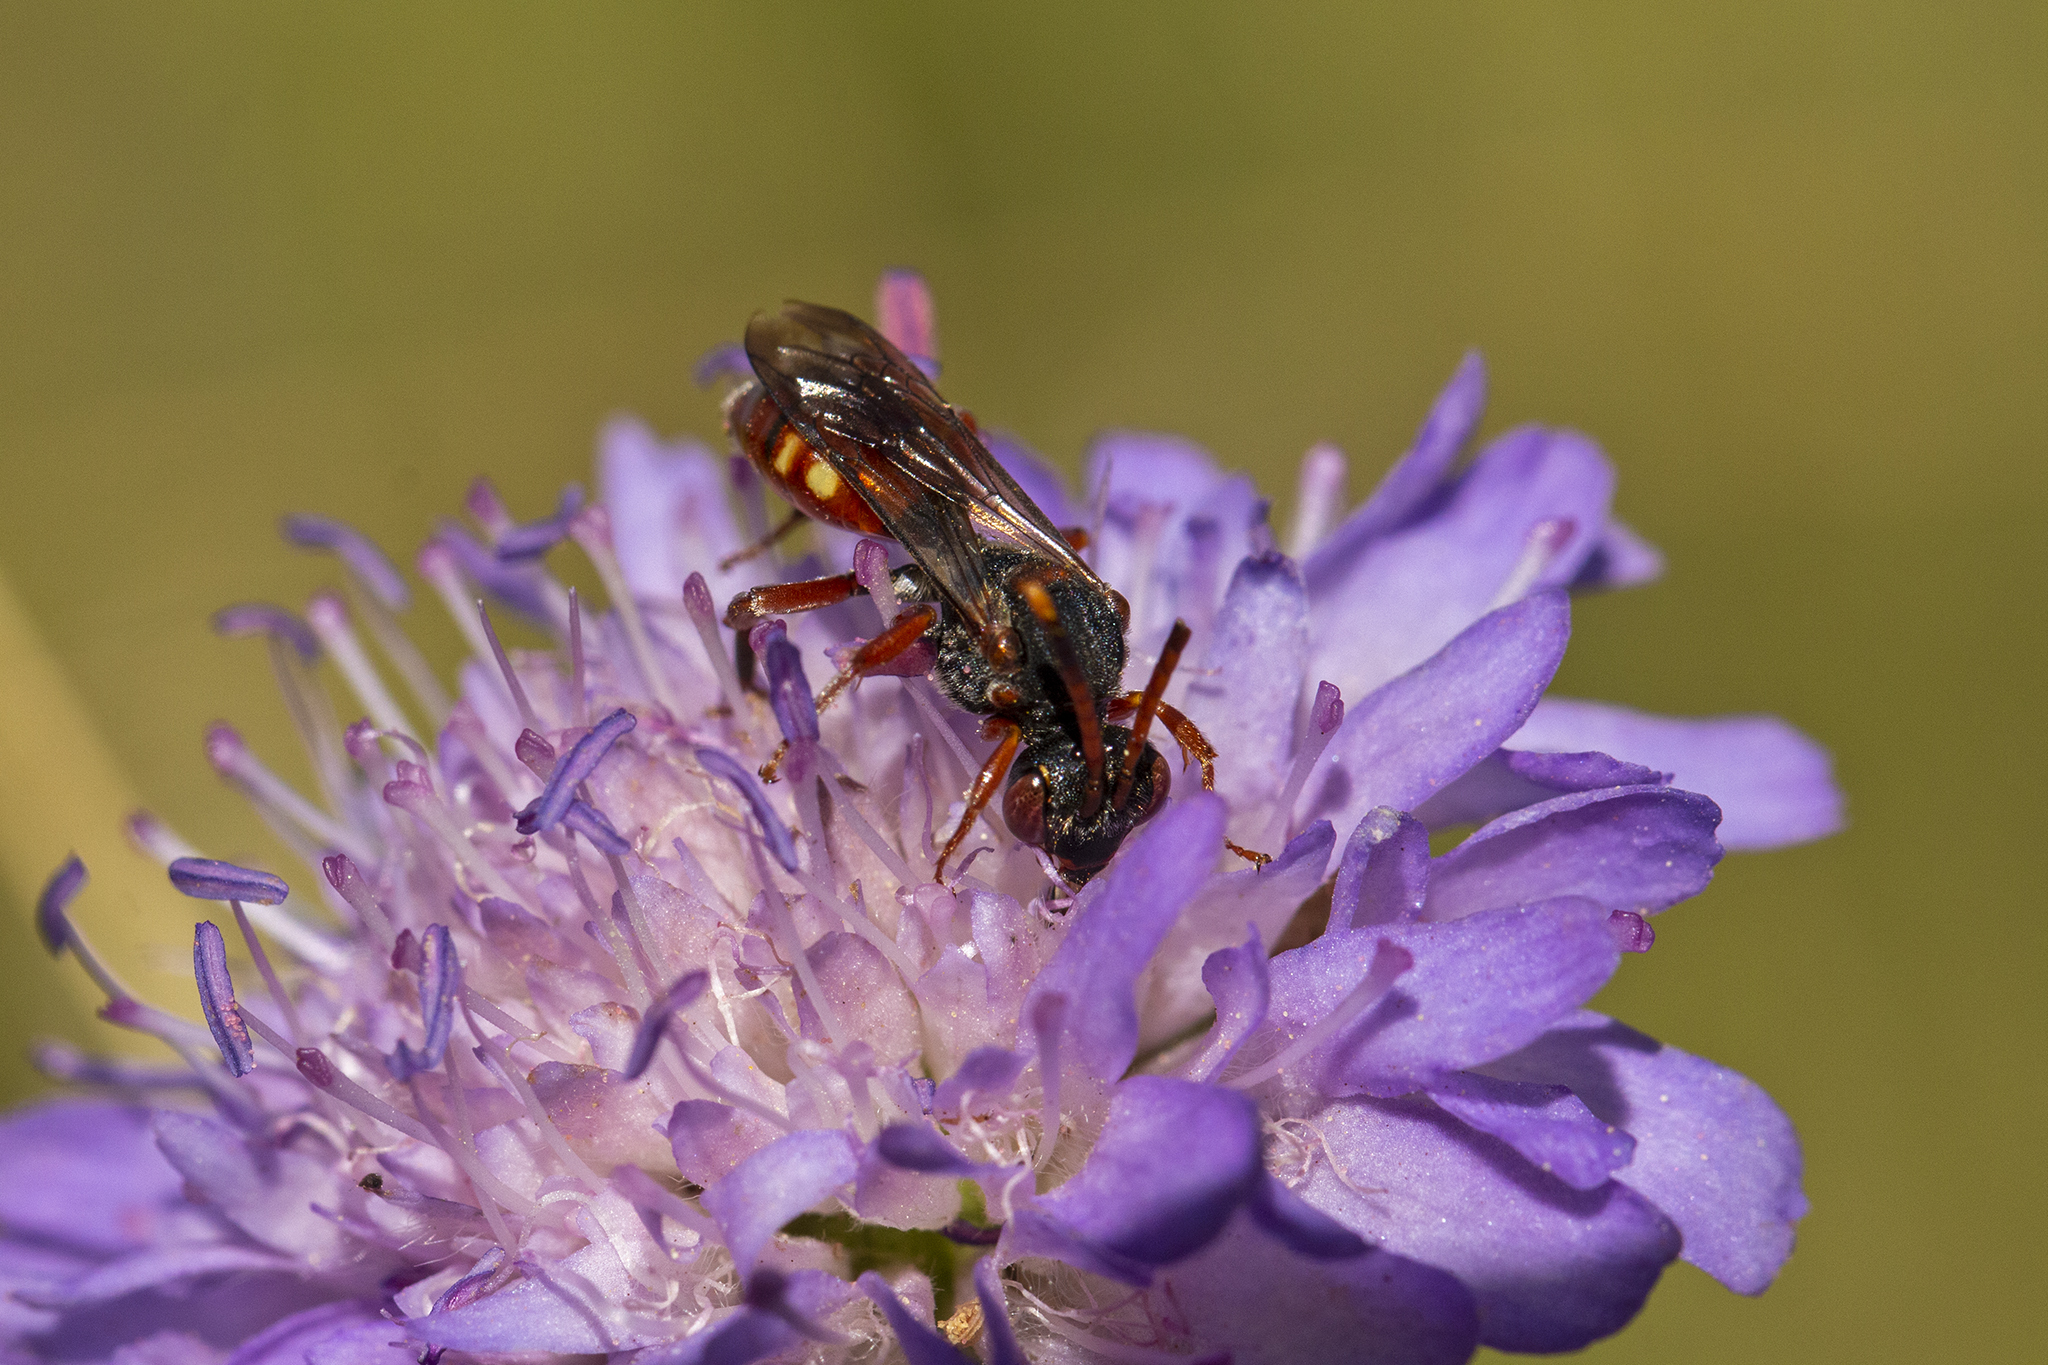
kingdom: Animalia
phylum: Arthropoda
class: Insecta
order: Hymenoptera
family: Apidae
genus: Nomada
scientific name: Nomada armata
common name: Armed nomad bee
